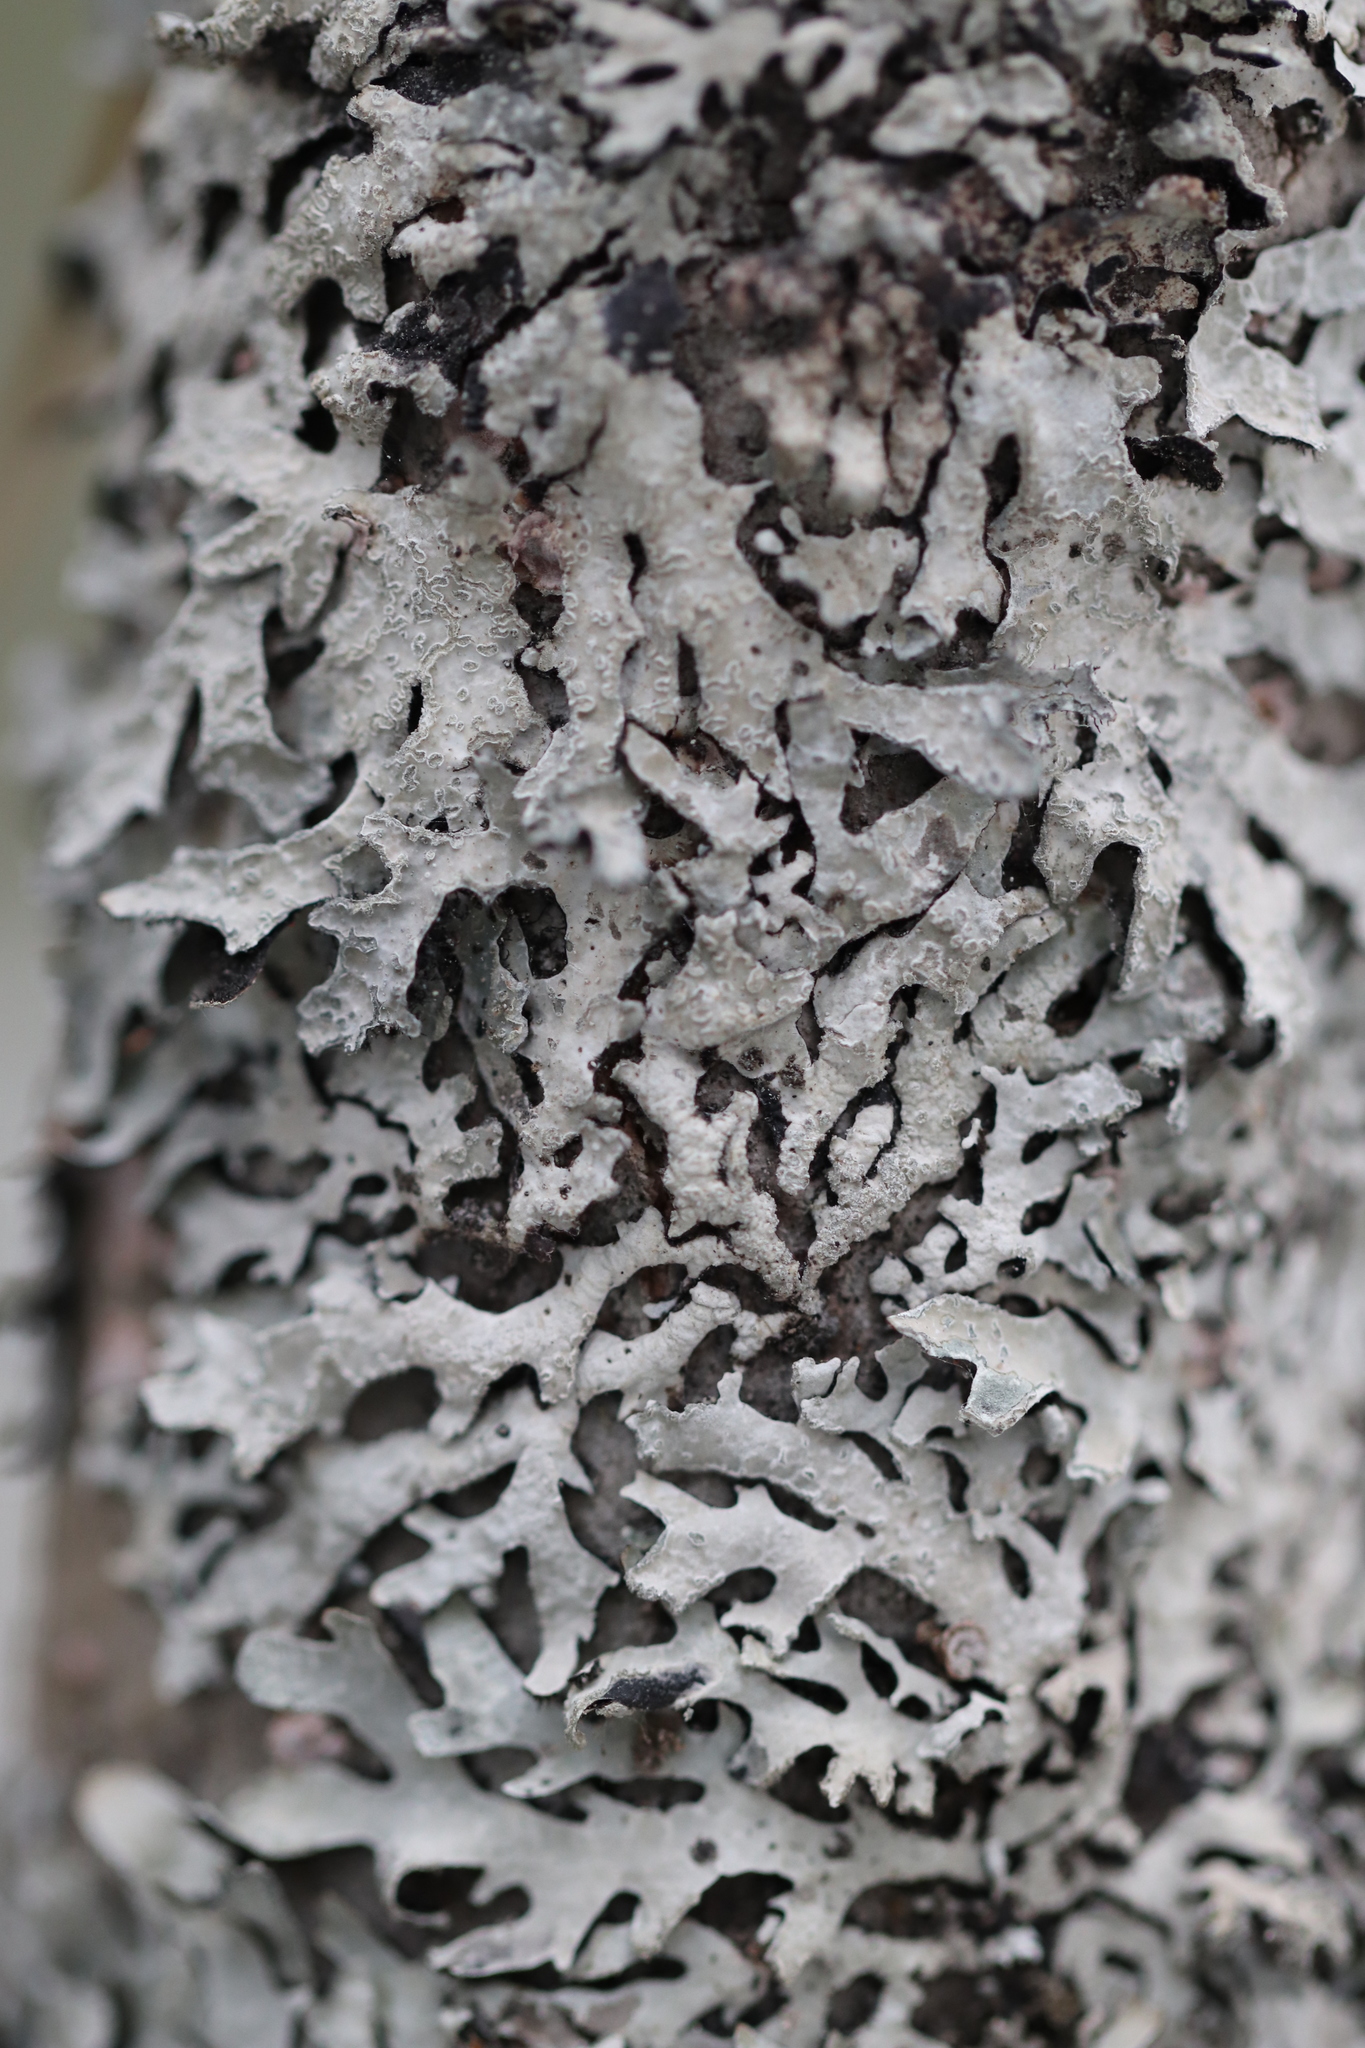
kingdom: Fungi
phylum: Ascomycota
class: Lecanoromycetes
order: Lecanorales
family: Parmeliaceae
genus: Parmelia
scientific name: Parmelia sulcata
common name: Netted shield lichen
